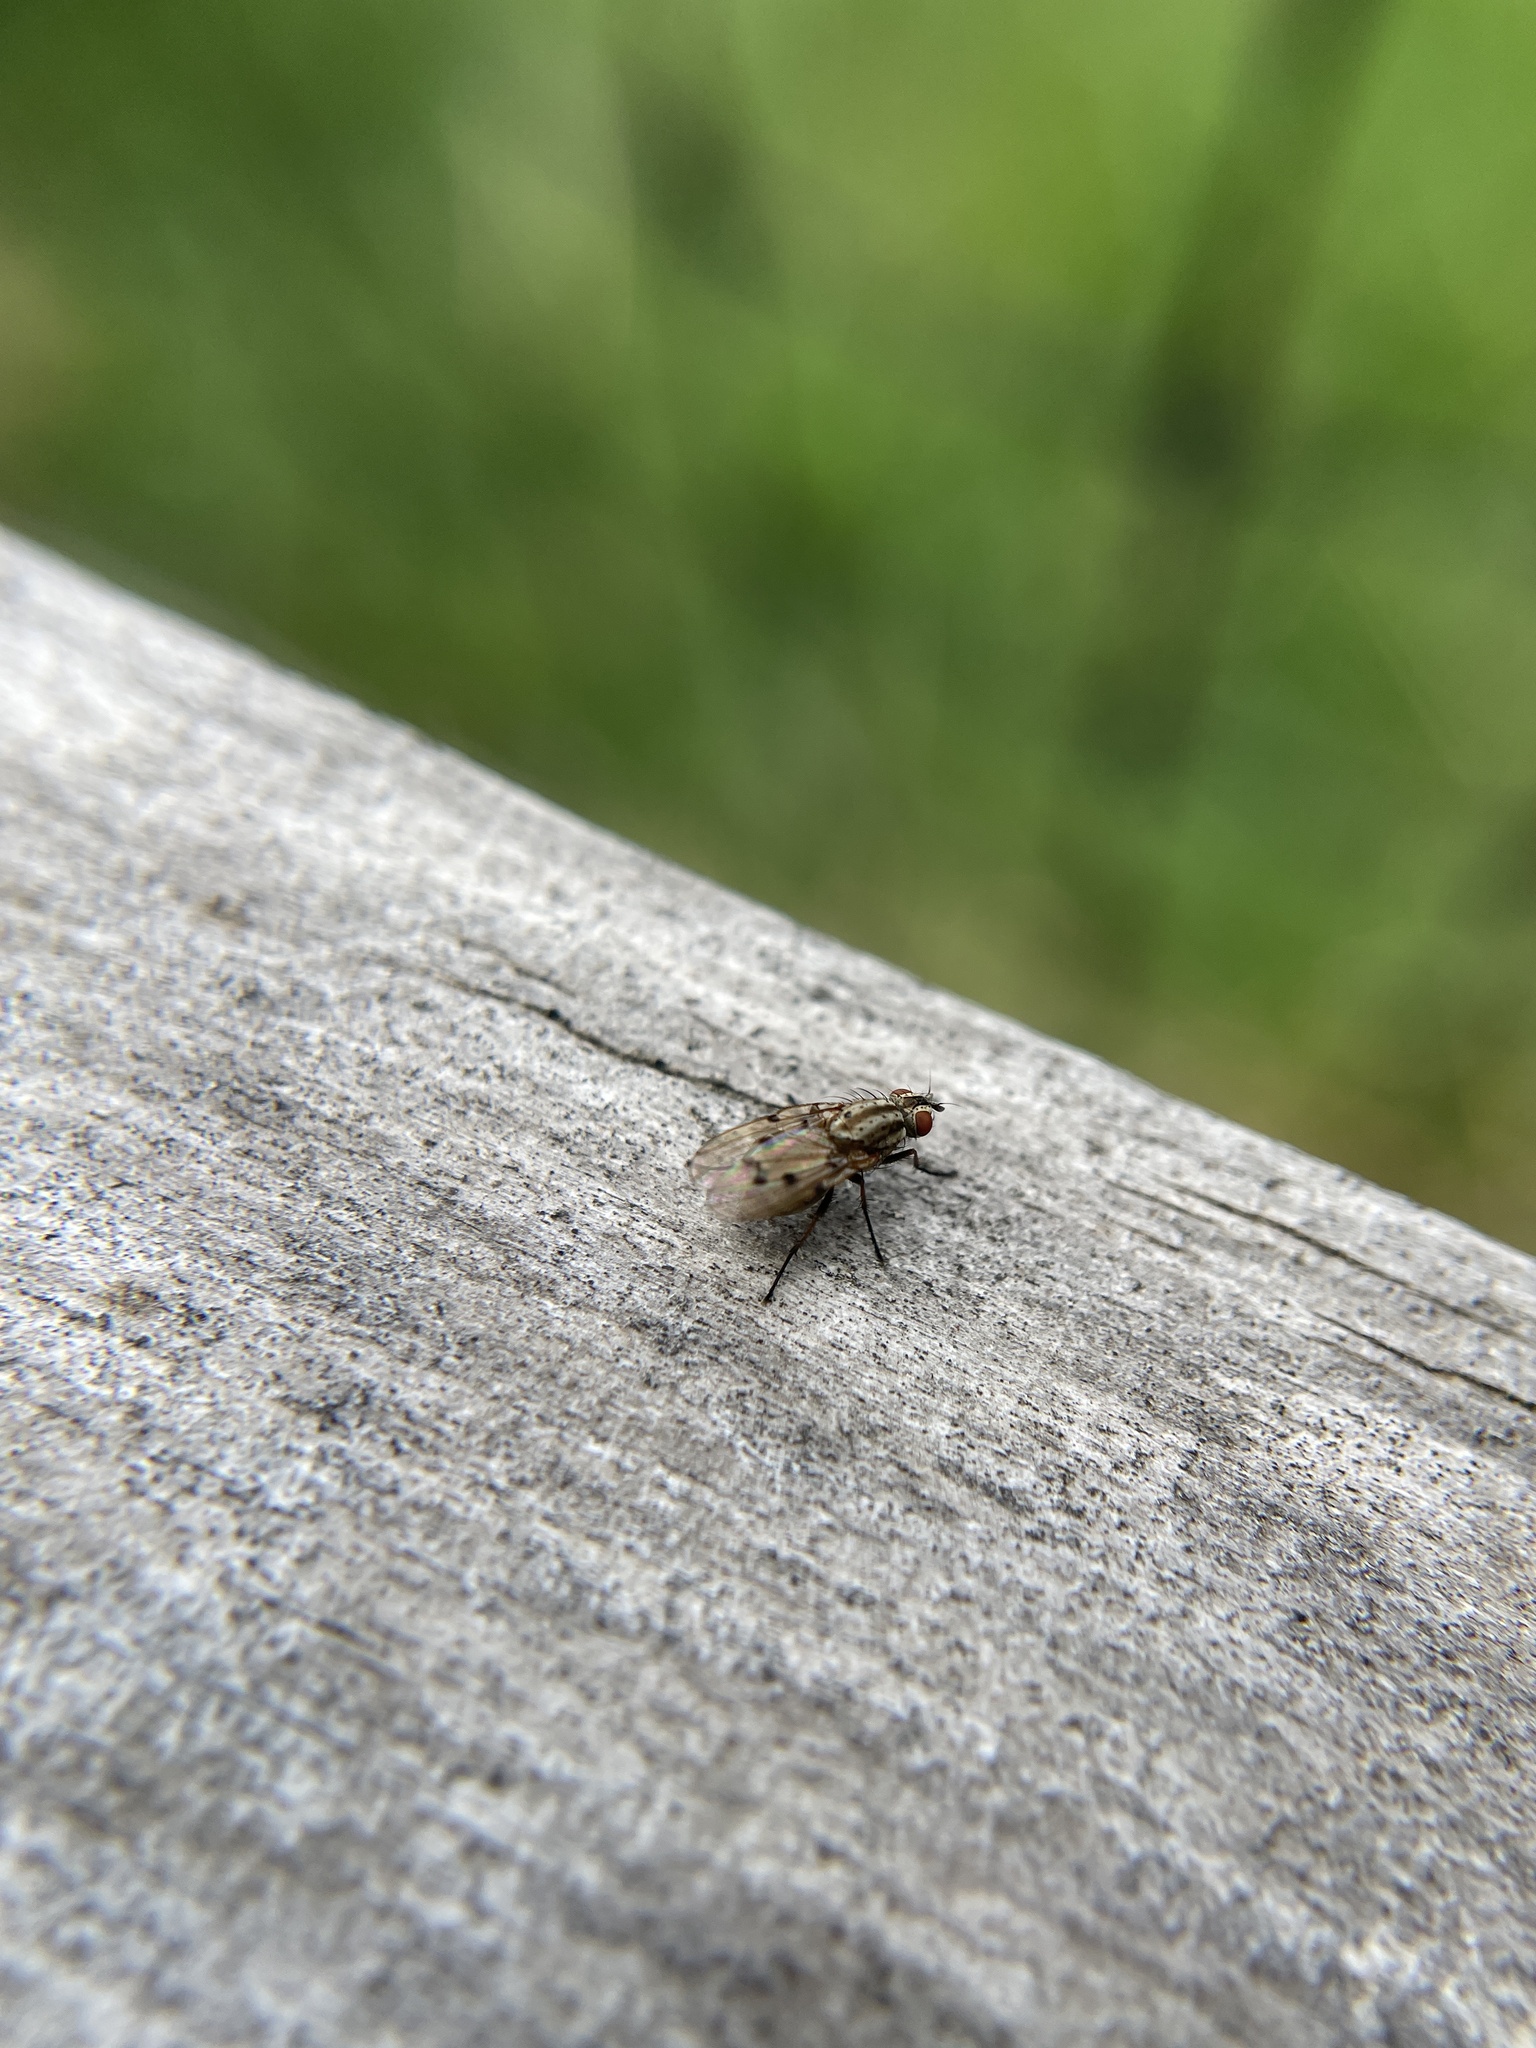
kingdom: Animalia
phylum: Arthropoda
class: Insecta
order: Diptera
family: Anthomyiidae
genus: Anthomyia
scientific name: Anthomyia punctipennis
